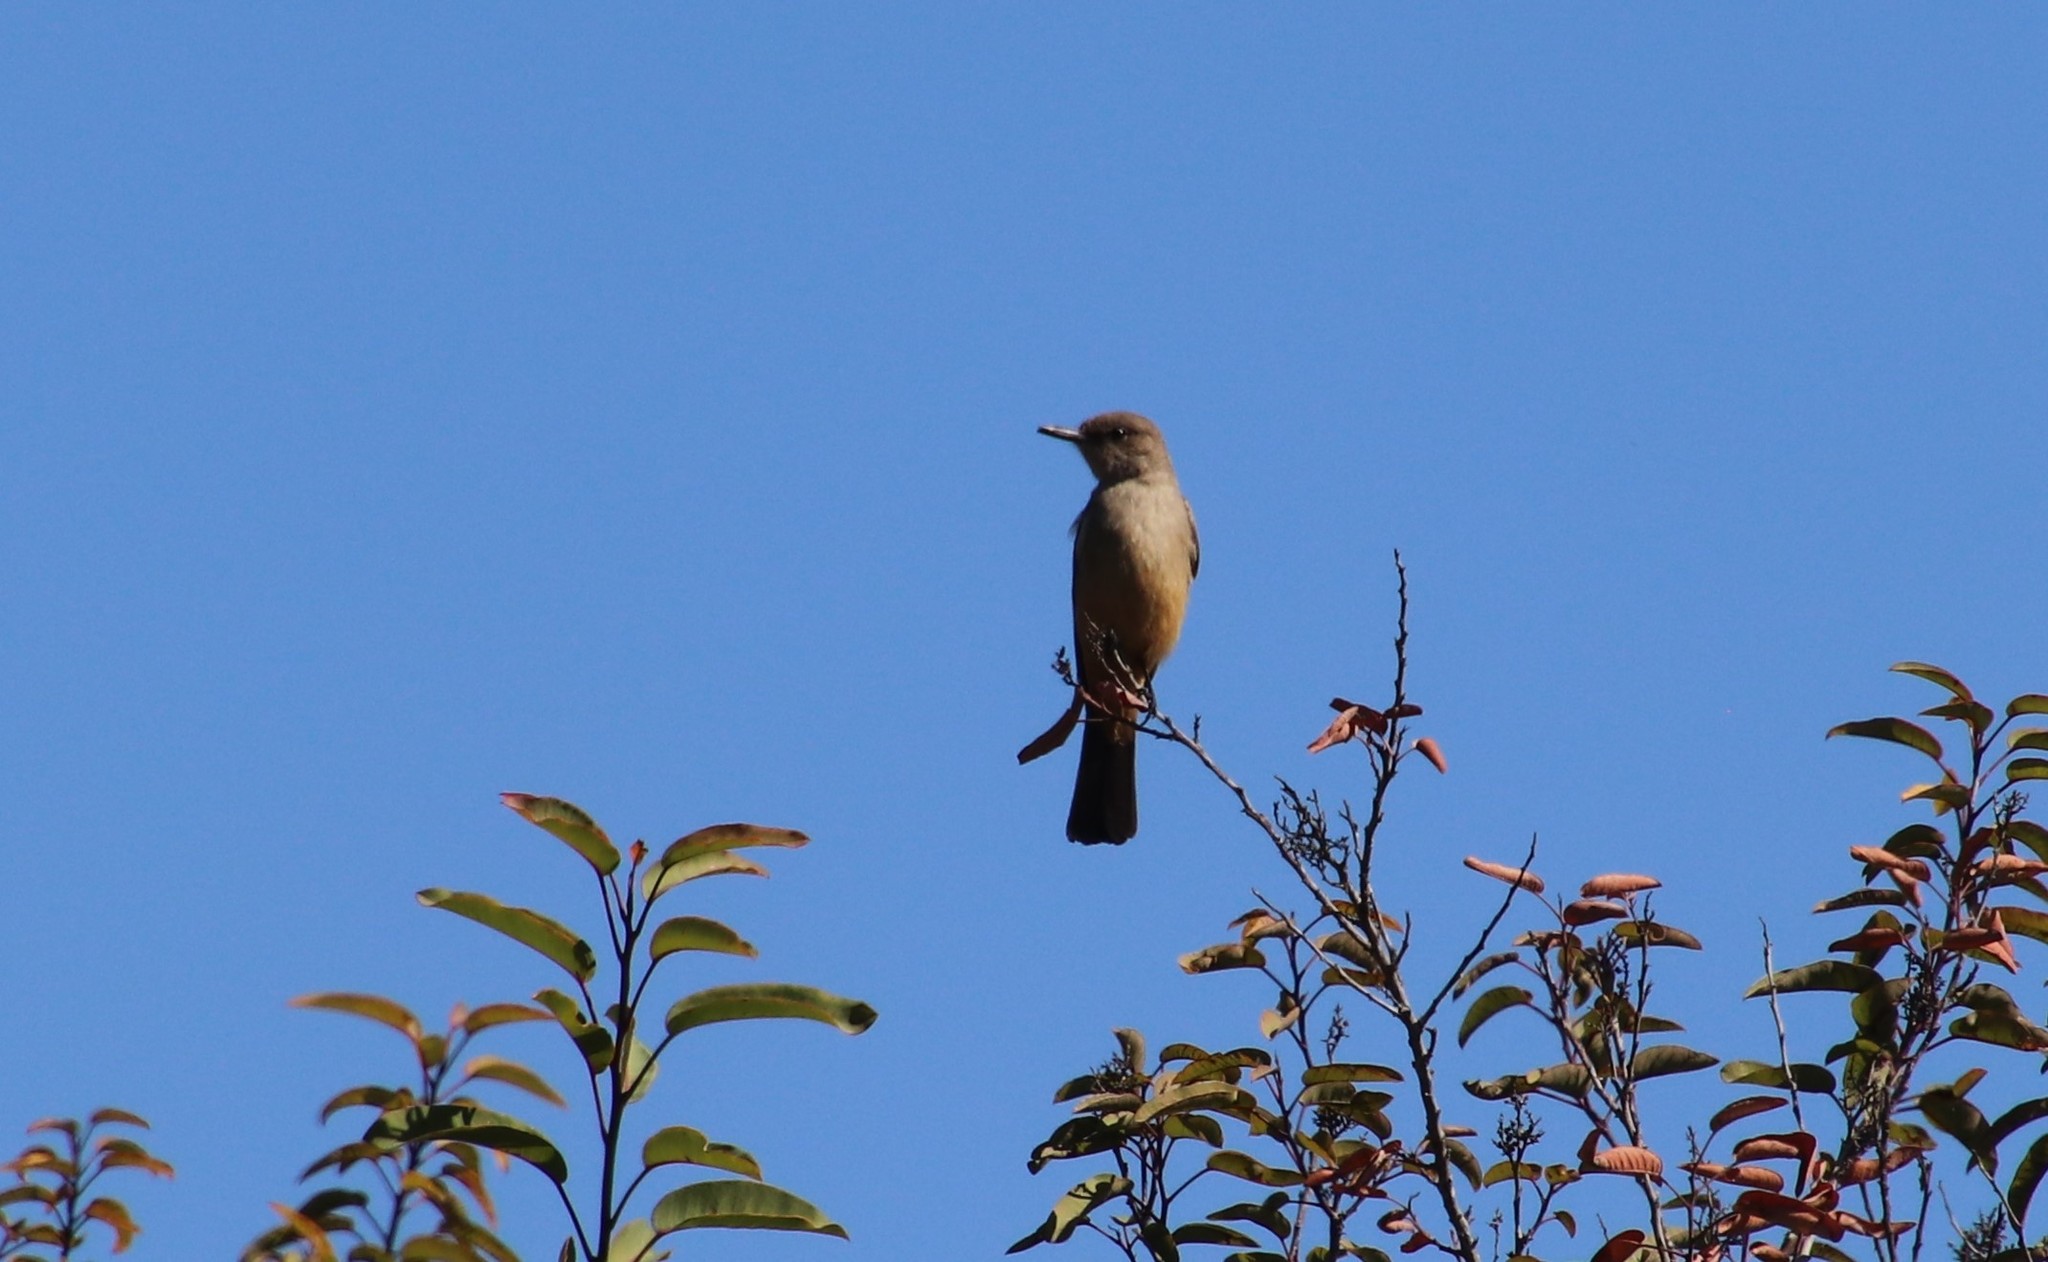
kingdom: Animalia
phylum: Chordata
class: Aves
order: Passeriformes
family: Tyrannidae
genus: Sayornis
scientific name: Sayornis saya
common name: Say's phoebe
